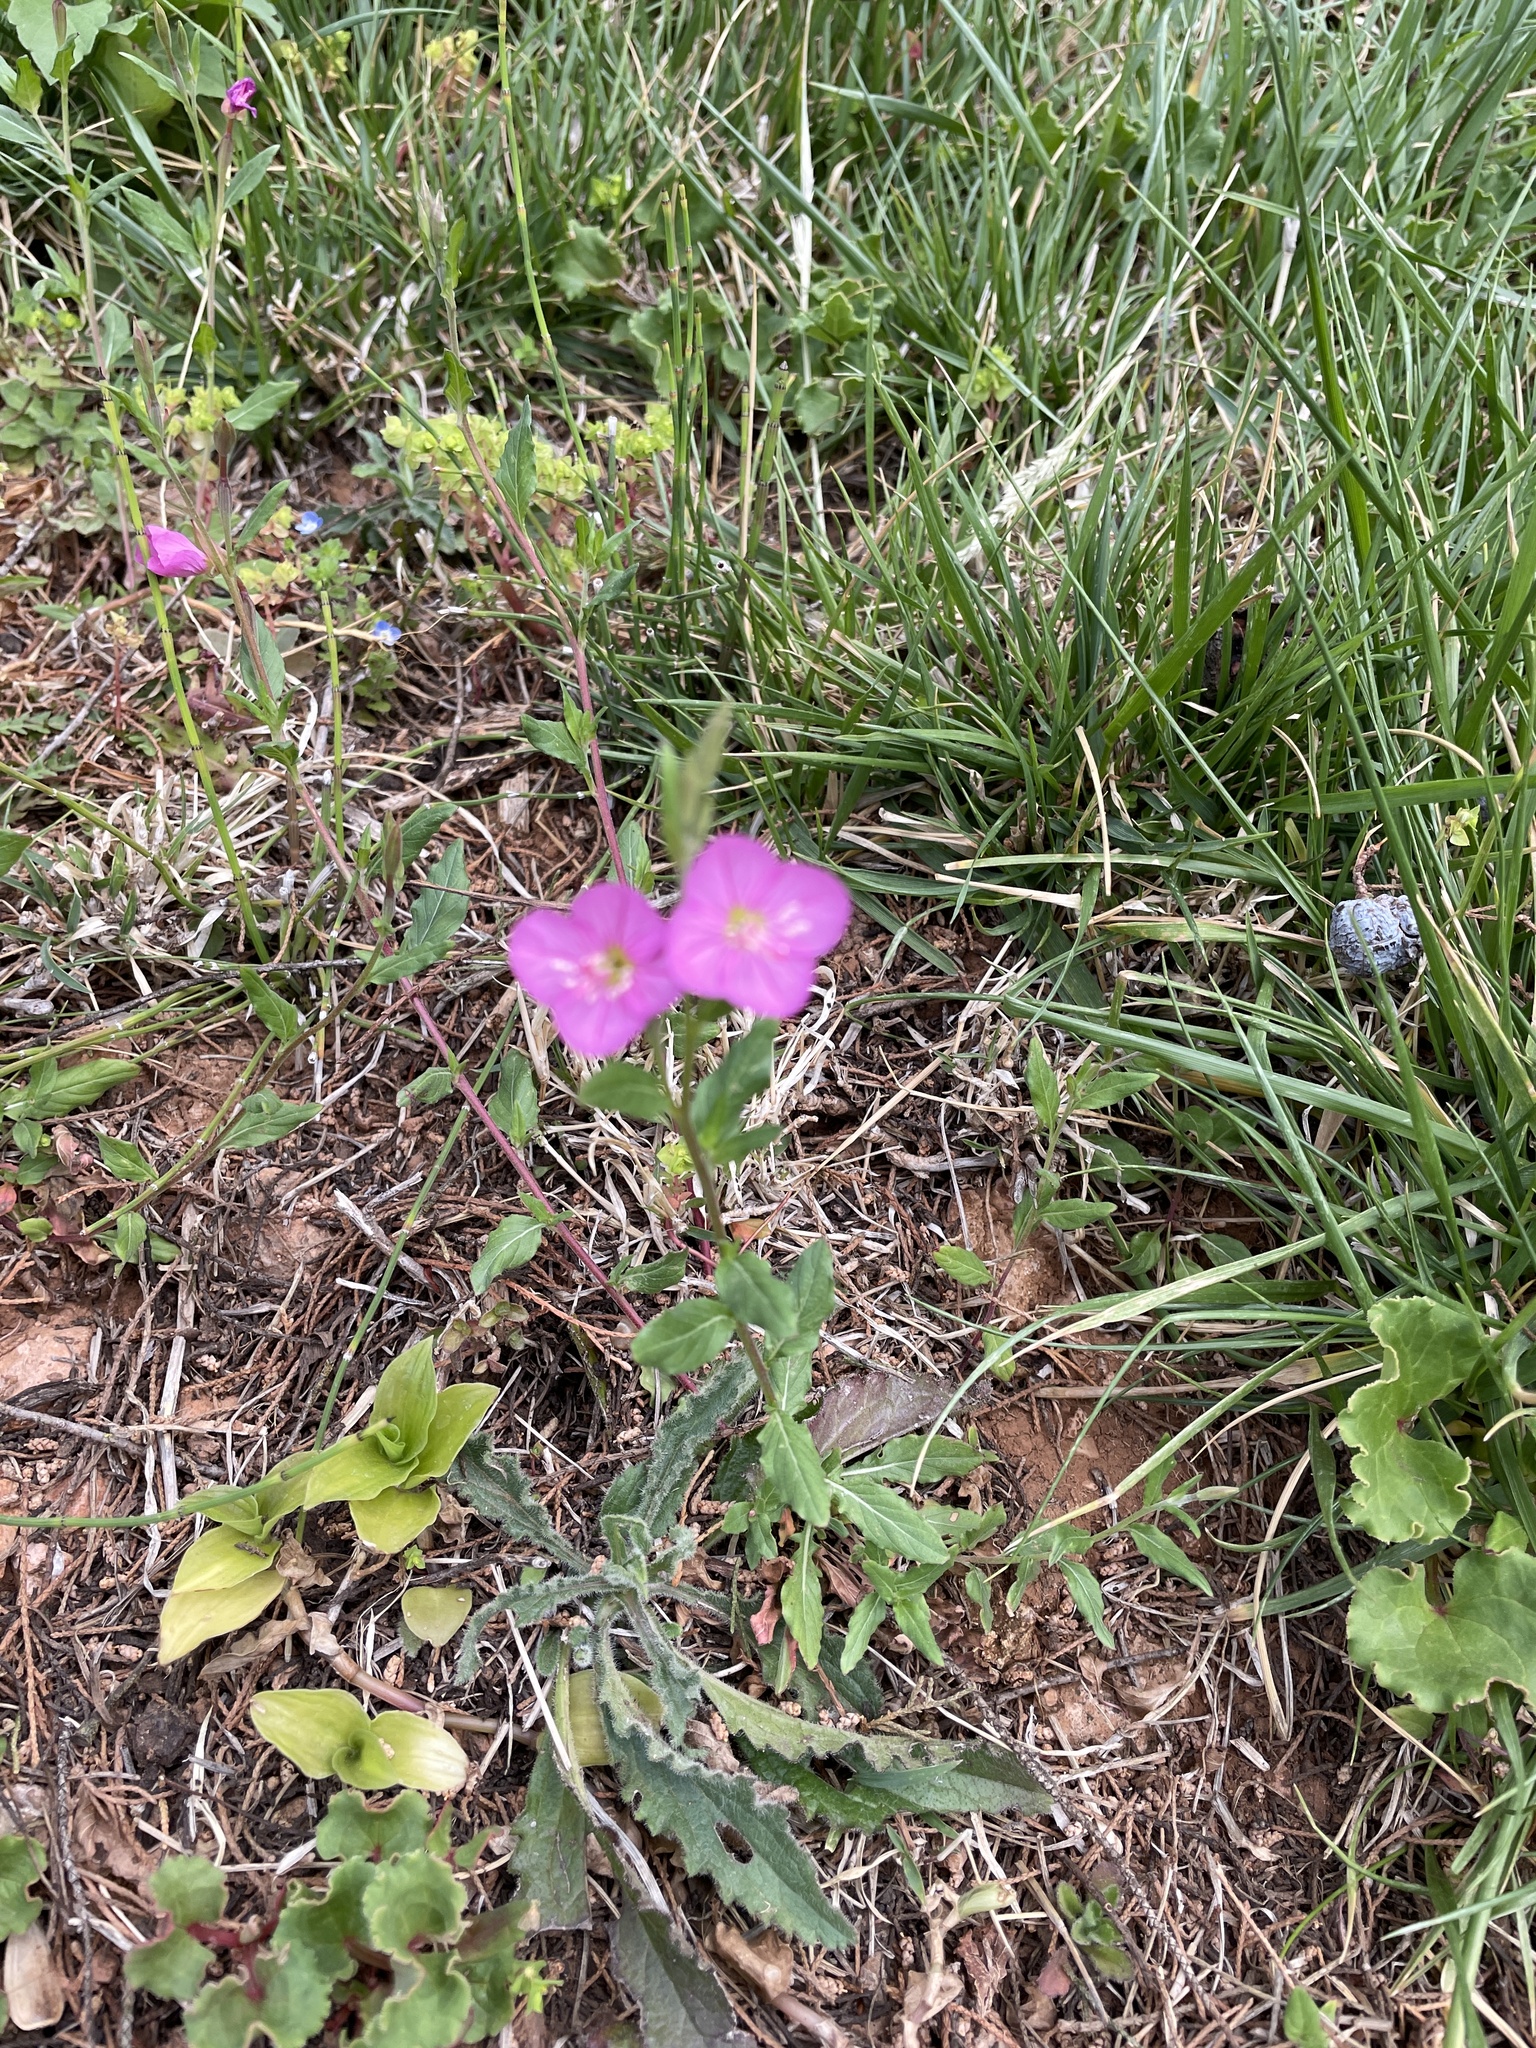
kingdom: Plantae
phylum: Tracheophyta
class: Magnoliopsida
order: Myrtales
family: Onagraceae
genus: Oenothera
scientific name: Oenothera rosea
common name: Rosy evening-primrose
